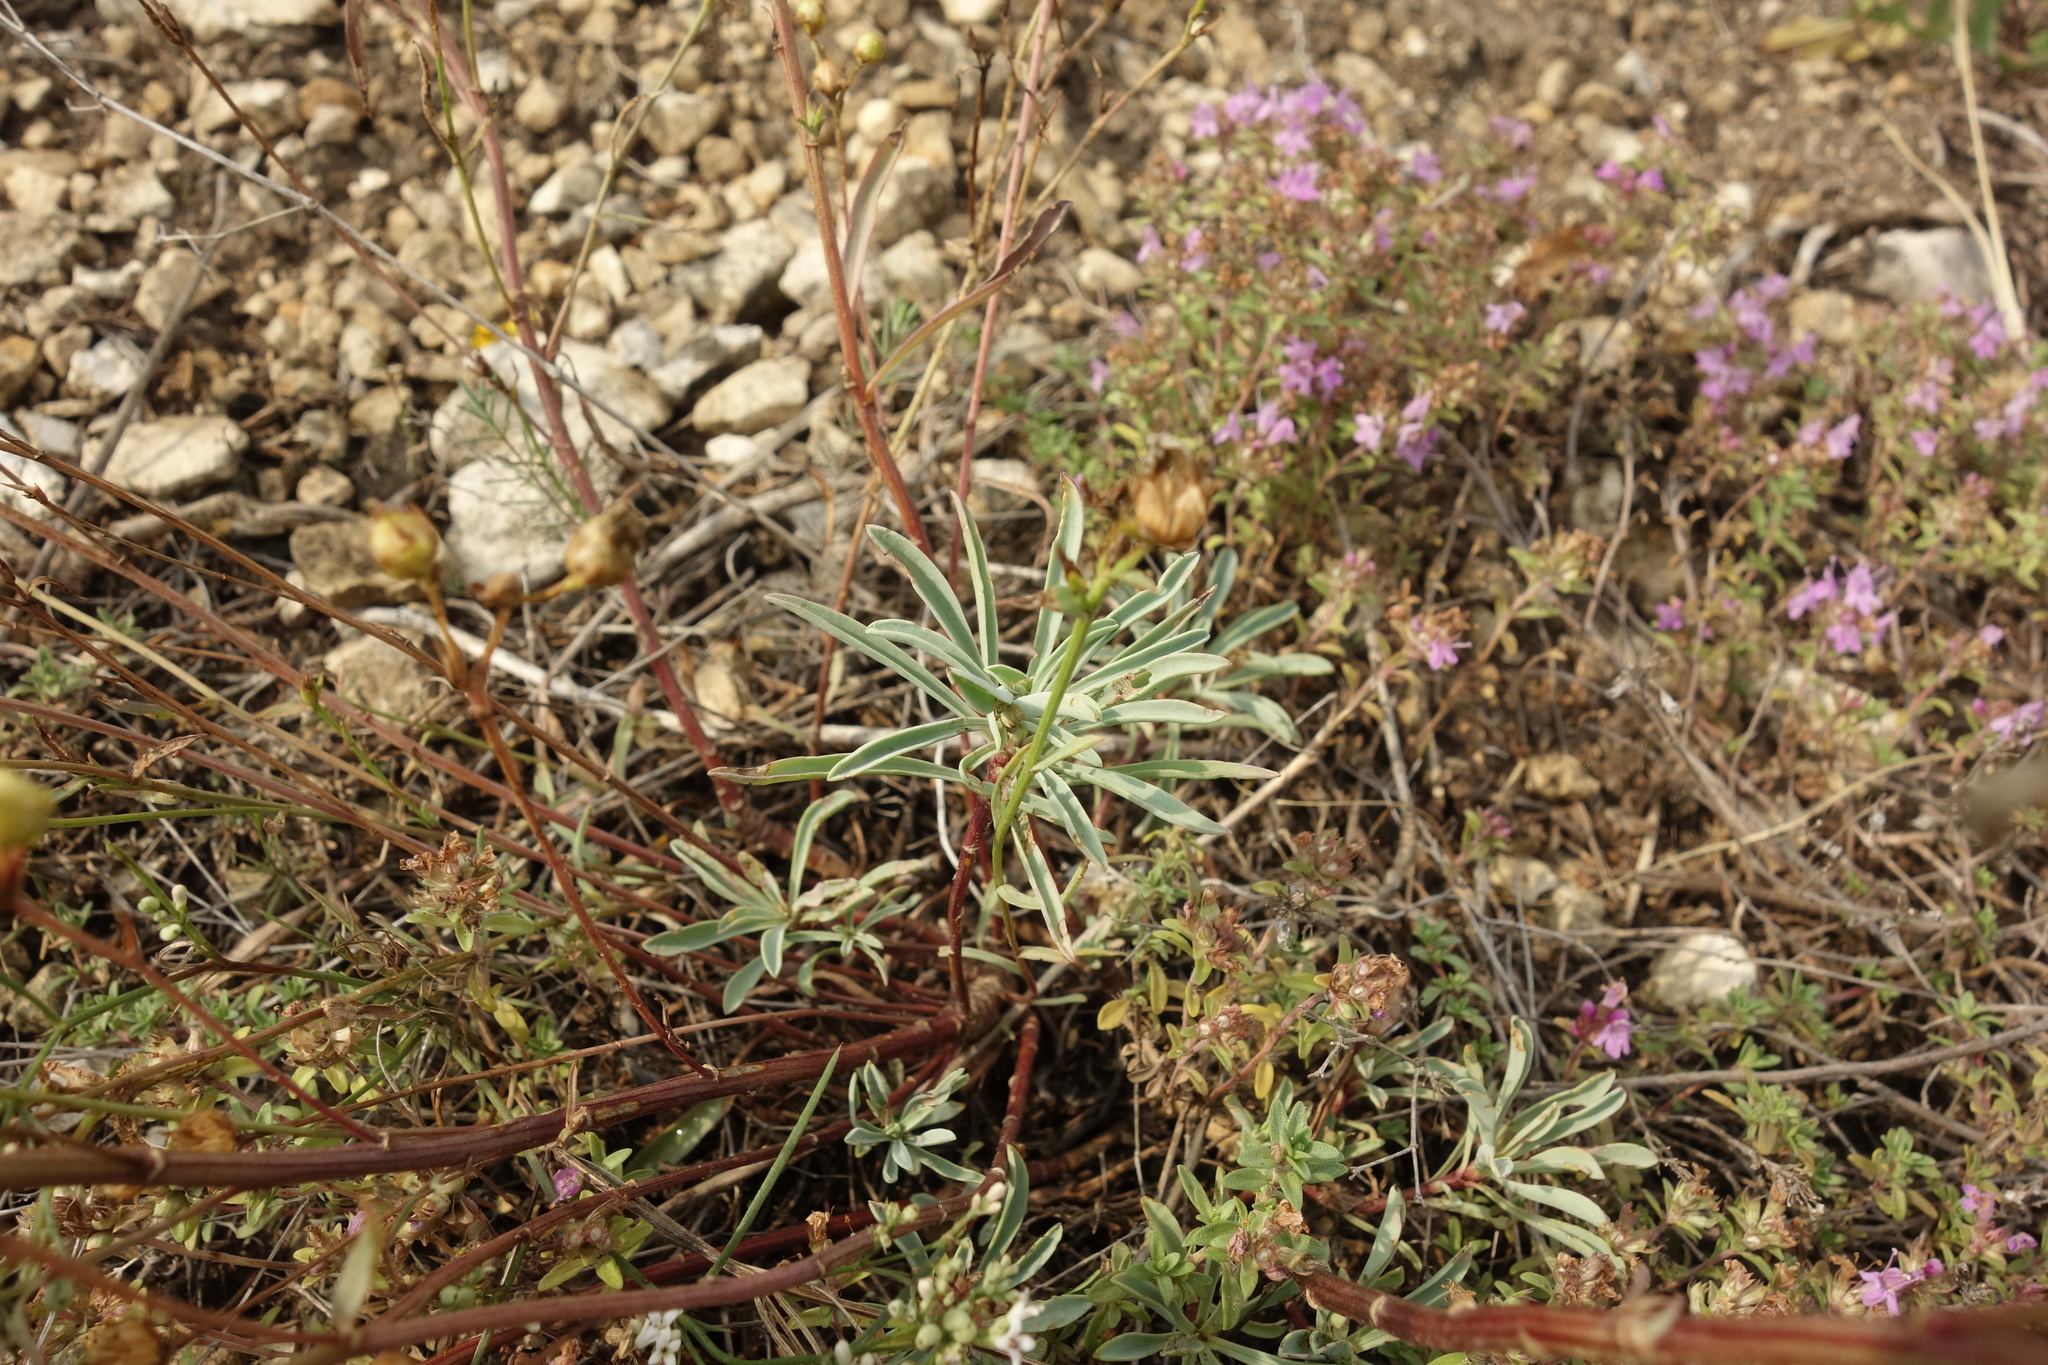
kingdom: Plantae
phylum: Tracheophyta
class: Magnoliopsida
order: Malpighiales
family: Linaceae
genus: Linum
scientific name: Linum ucranicum
